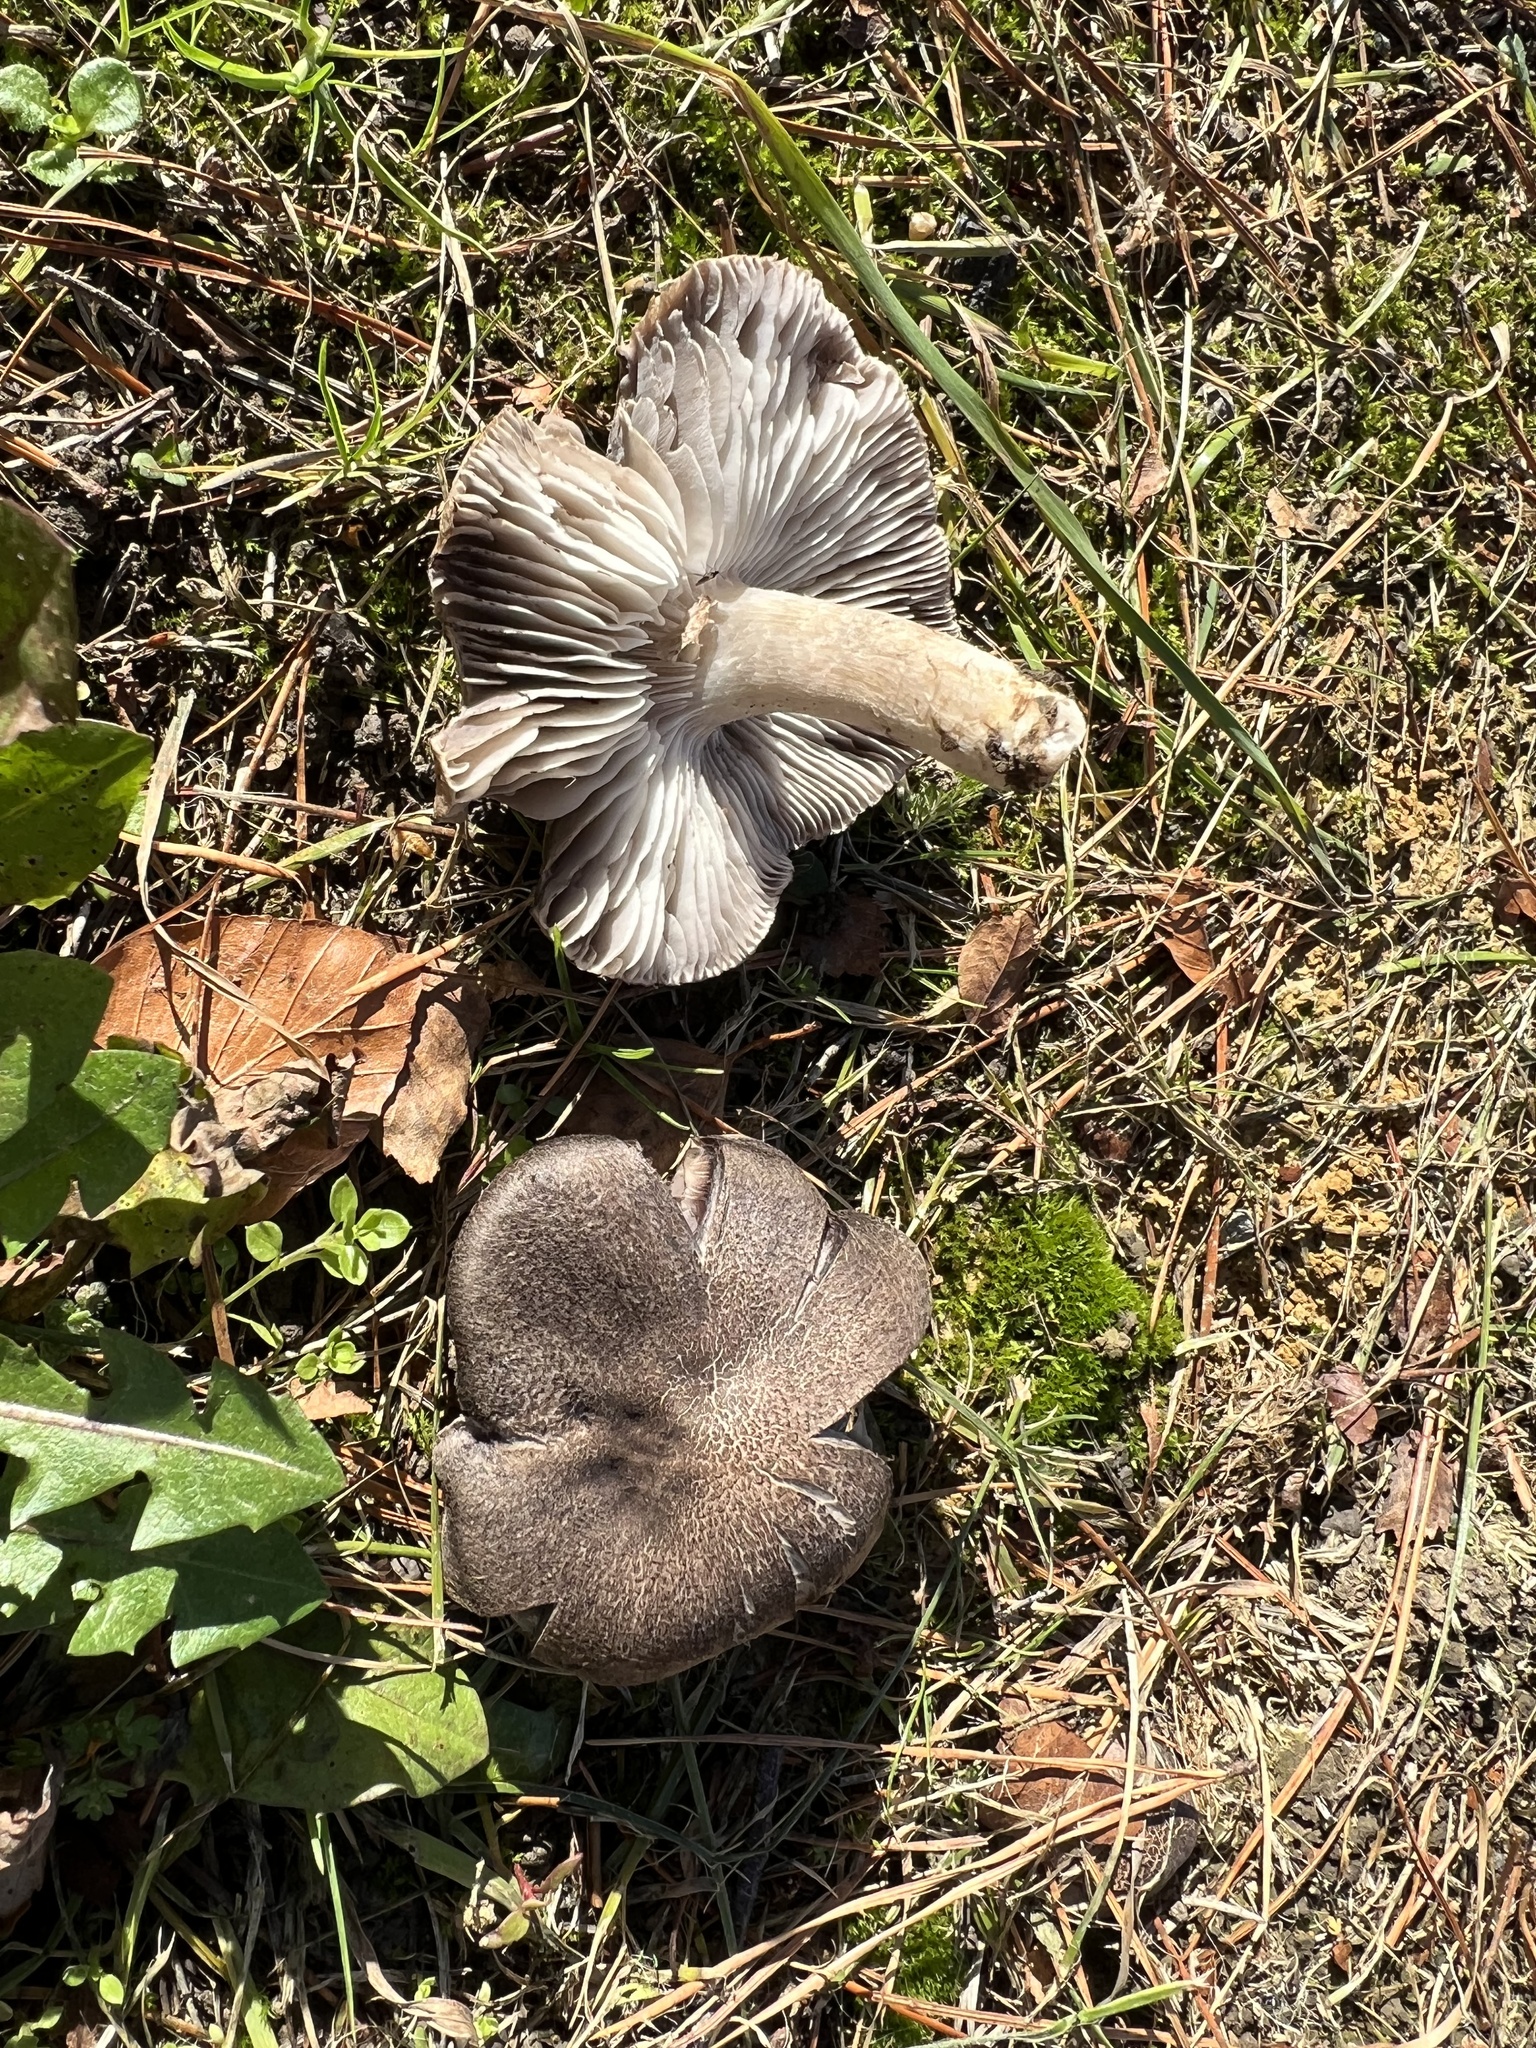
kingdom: Fungi
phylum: Basidiomycota
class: Agaricomycetes
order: Agaricales
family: Tricholomataceae
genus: Tricholoma
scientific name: Tricholoma terreum
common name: Grey knight
